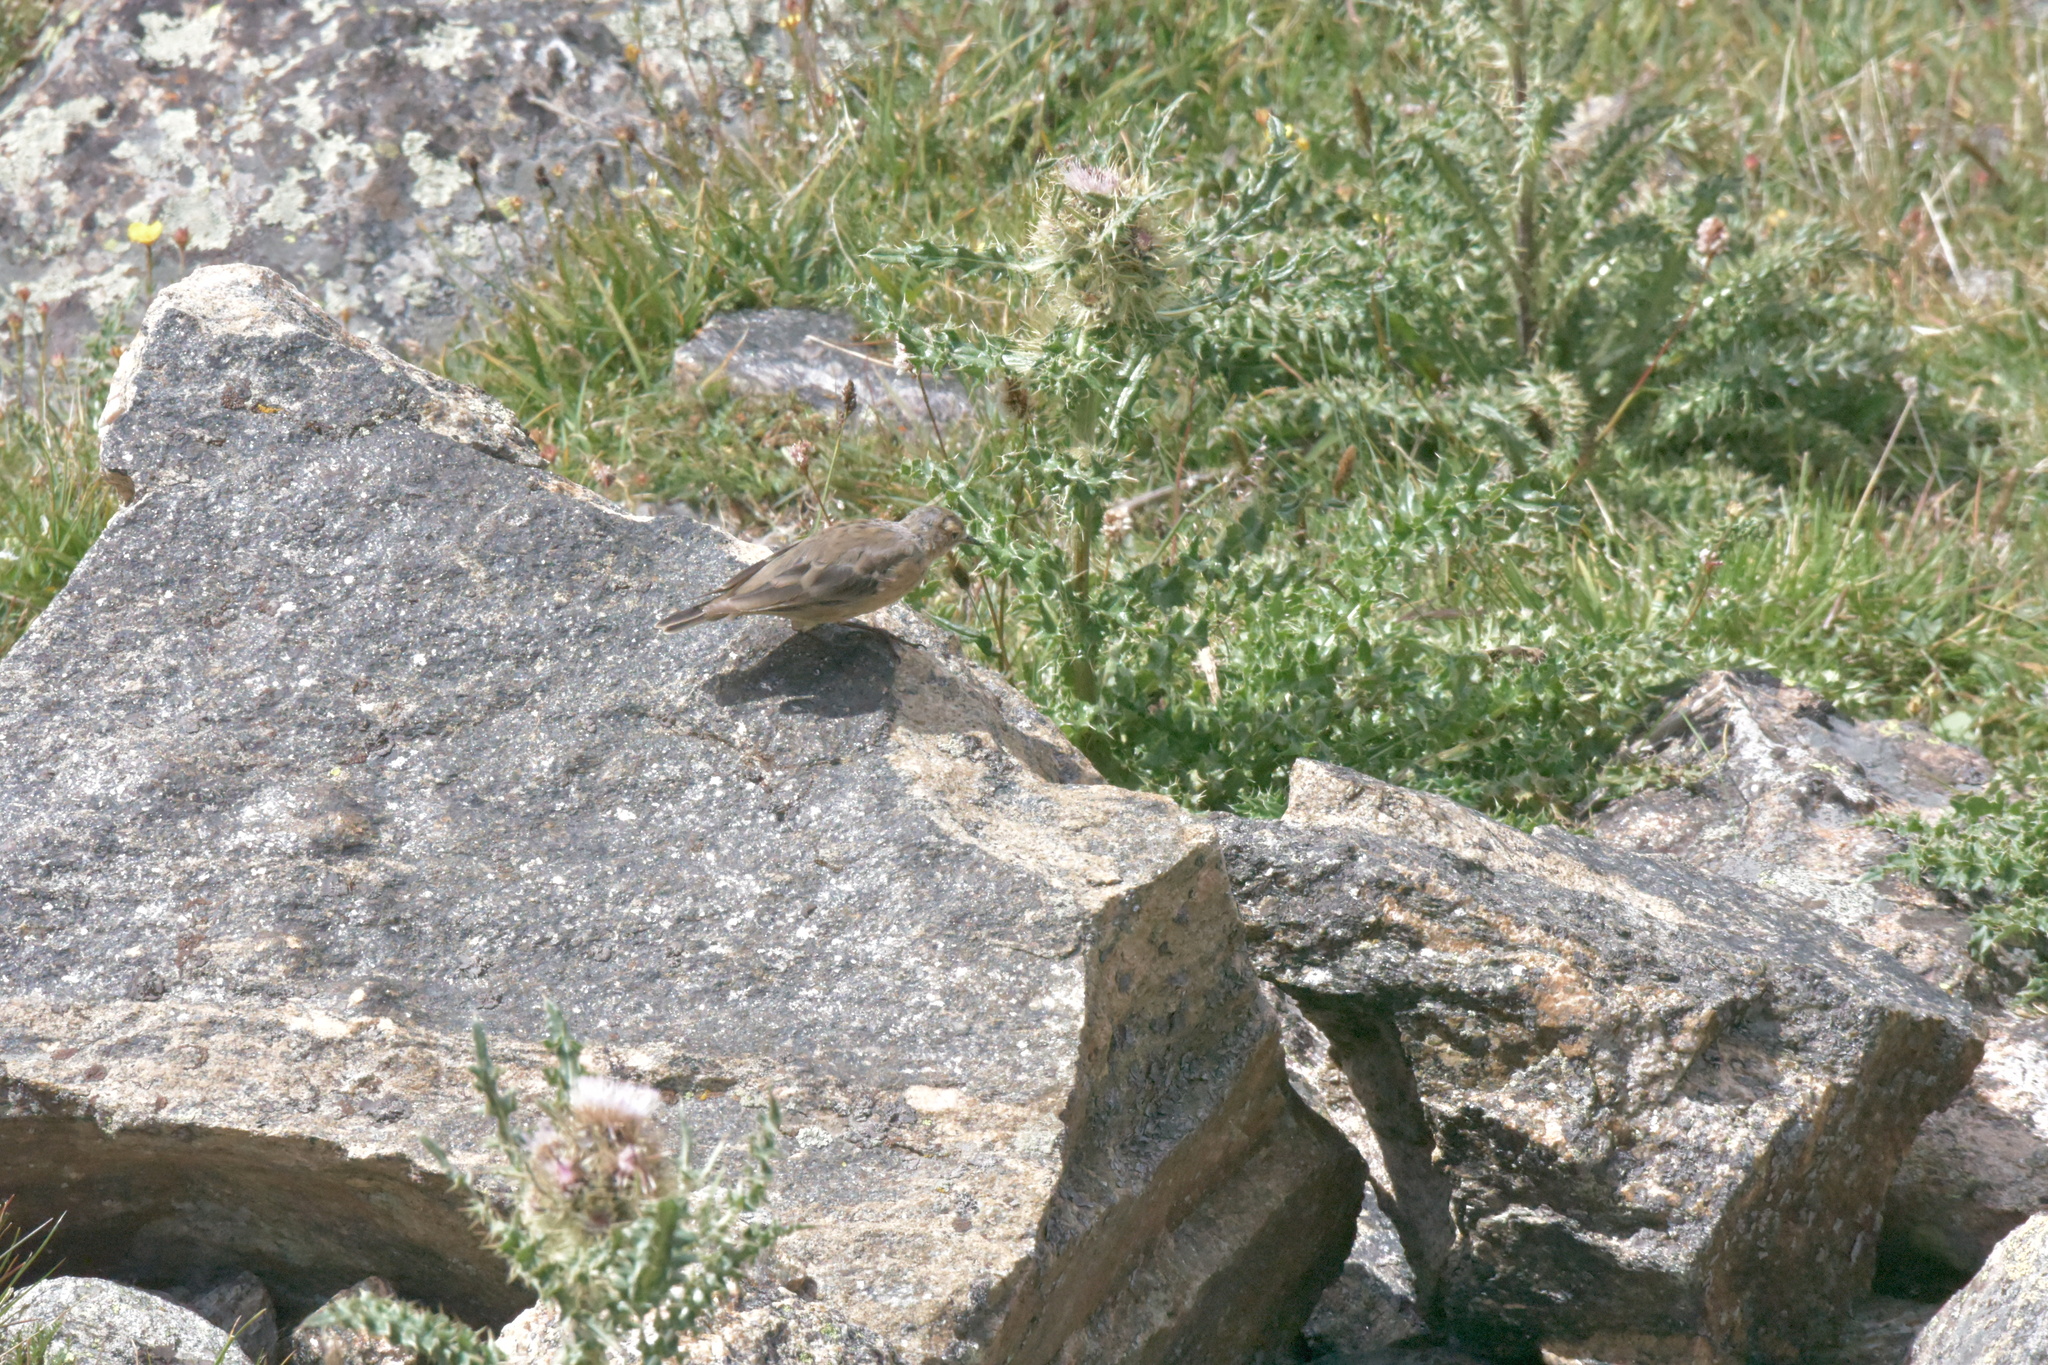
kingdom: Animalia
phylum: Chordata
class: Aves
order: Passeriformes
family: Motacillidae
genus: Anthus
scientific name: Anthus rubescens
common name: Buff-bellied pipit
